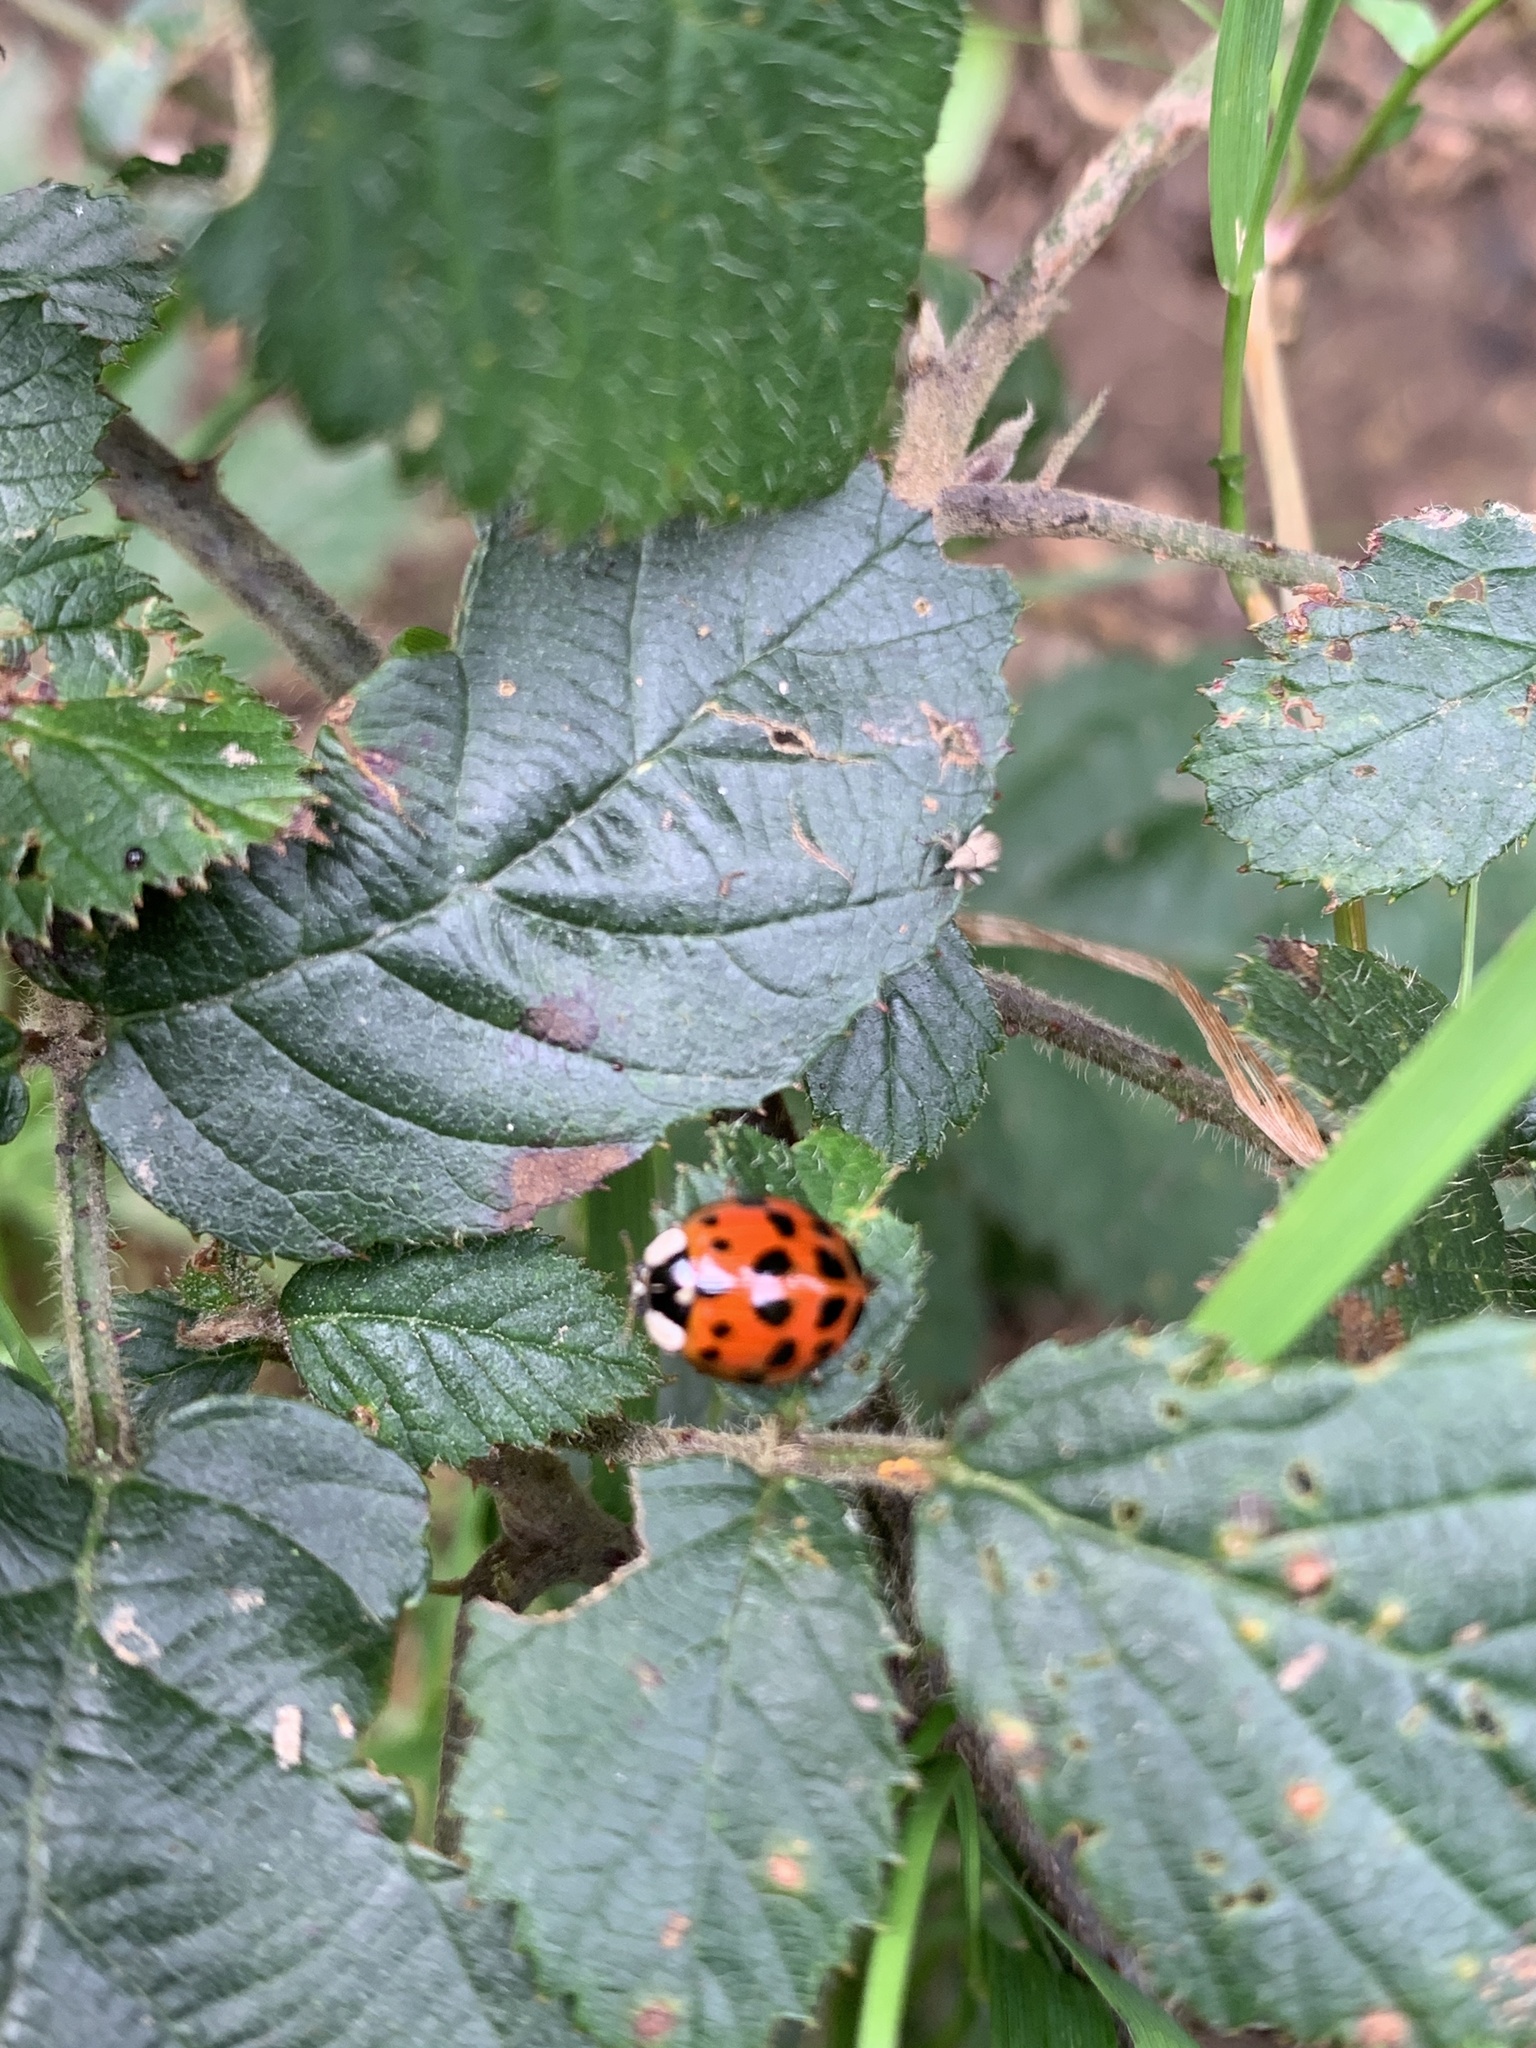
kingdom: Animalia
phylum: Arthropoda
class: Insecta
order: Coleoptera
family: Coccinellidae
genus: Harmonia
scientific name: Harmonia axyridis
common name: Harlequin ladybird
